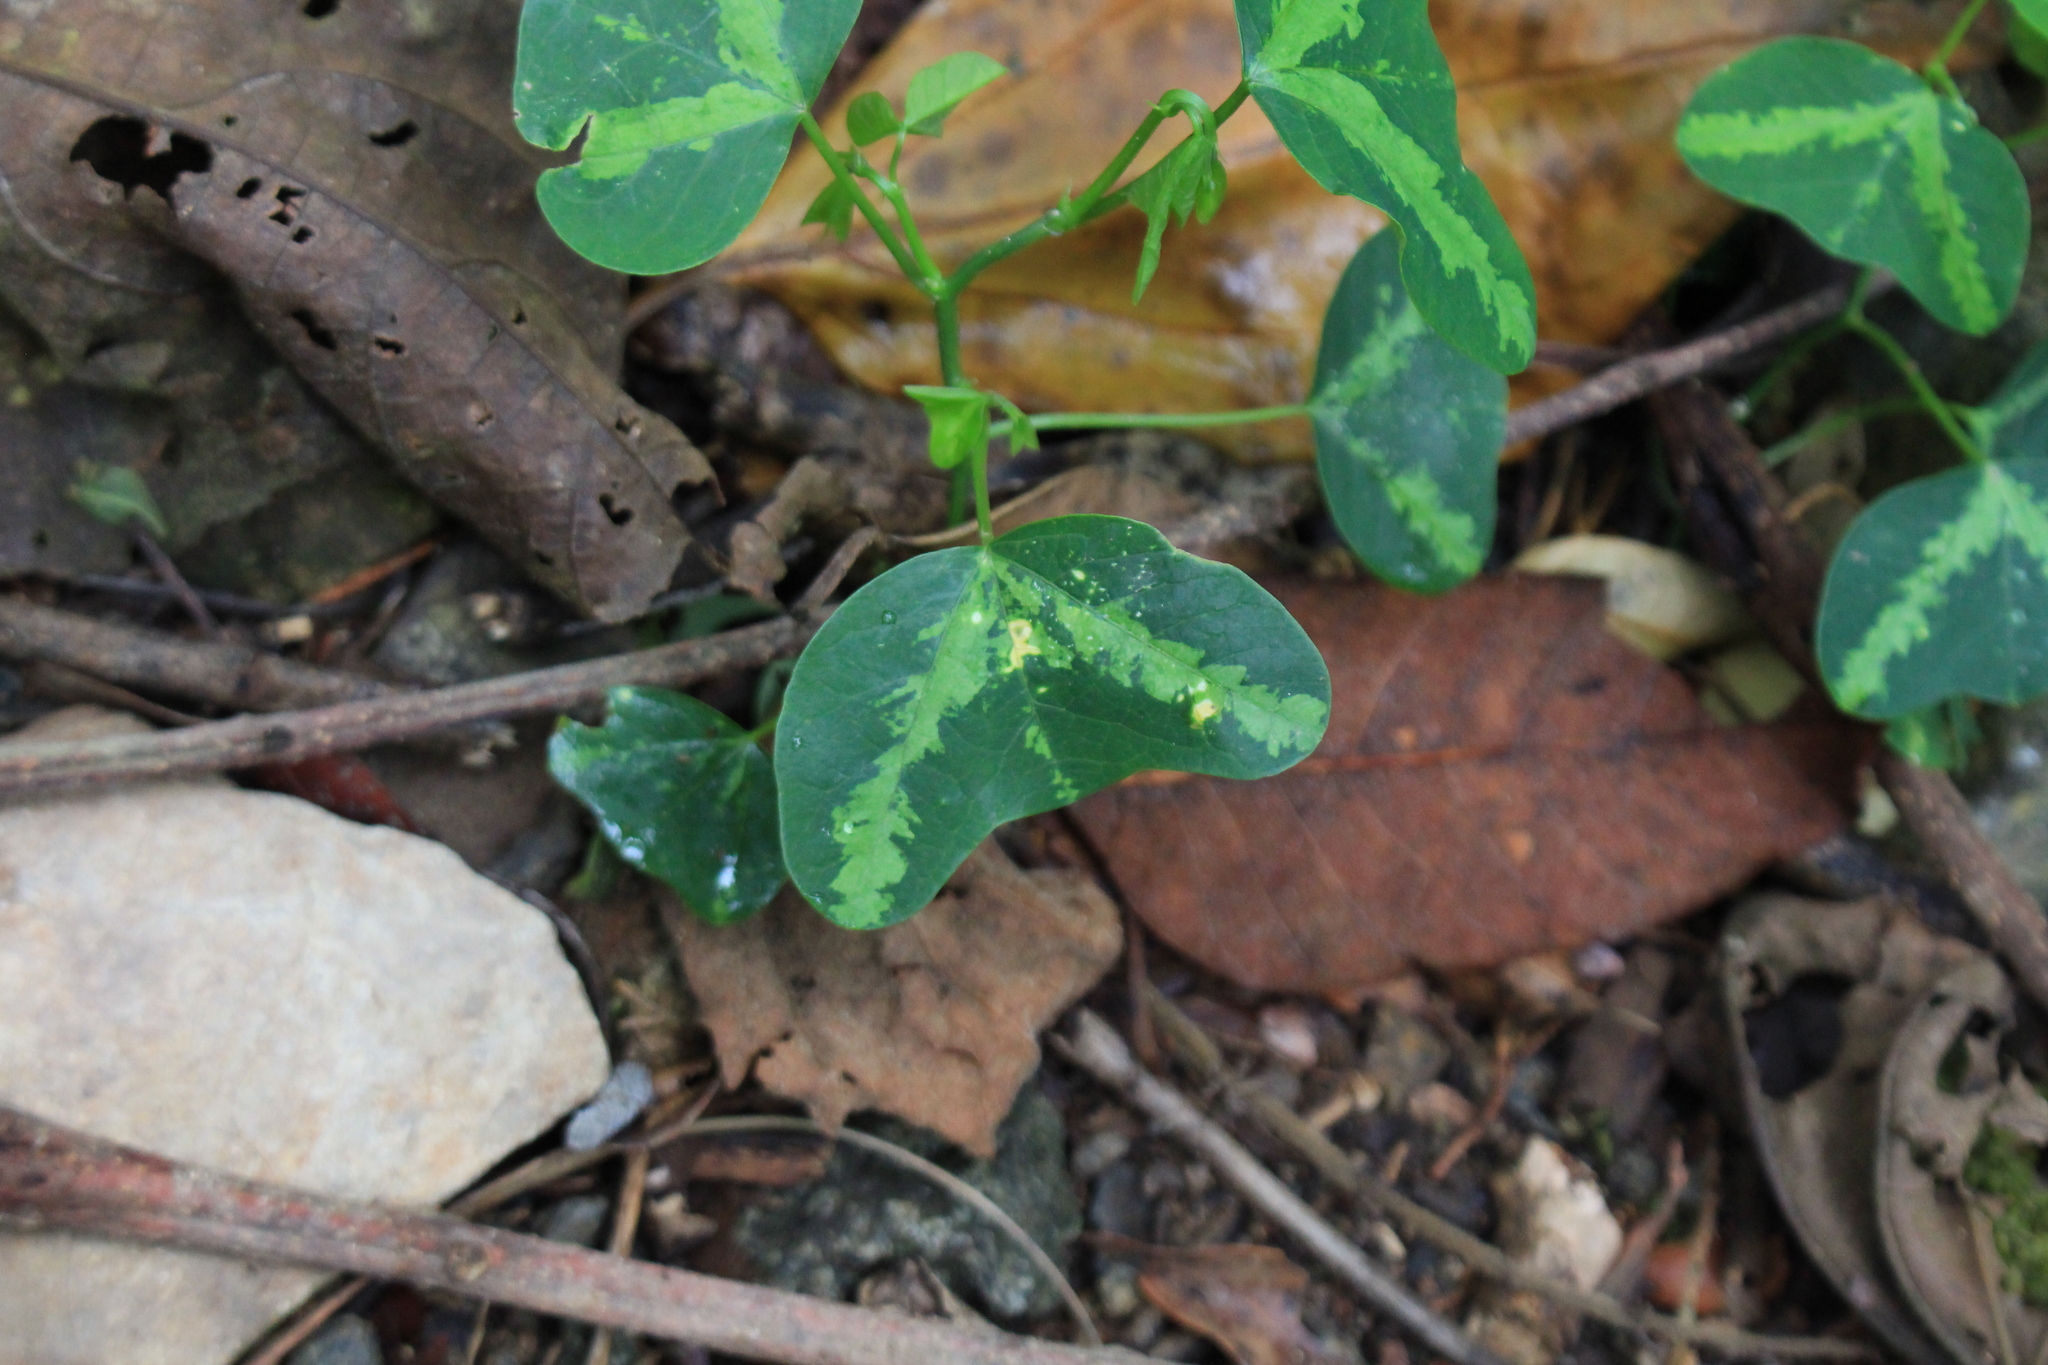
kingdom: Plantae
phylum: Tracheophyta
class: Magnoliopsida
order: Malpighiales
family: Passifloraceae
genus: Passiflora
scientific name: Passiflora apetala
